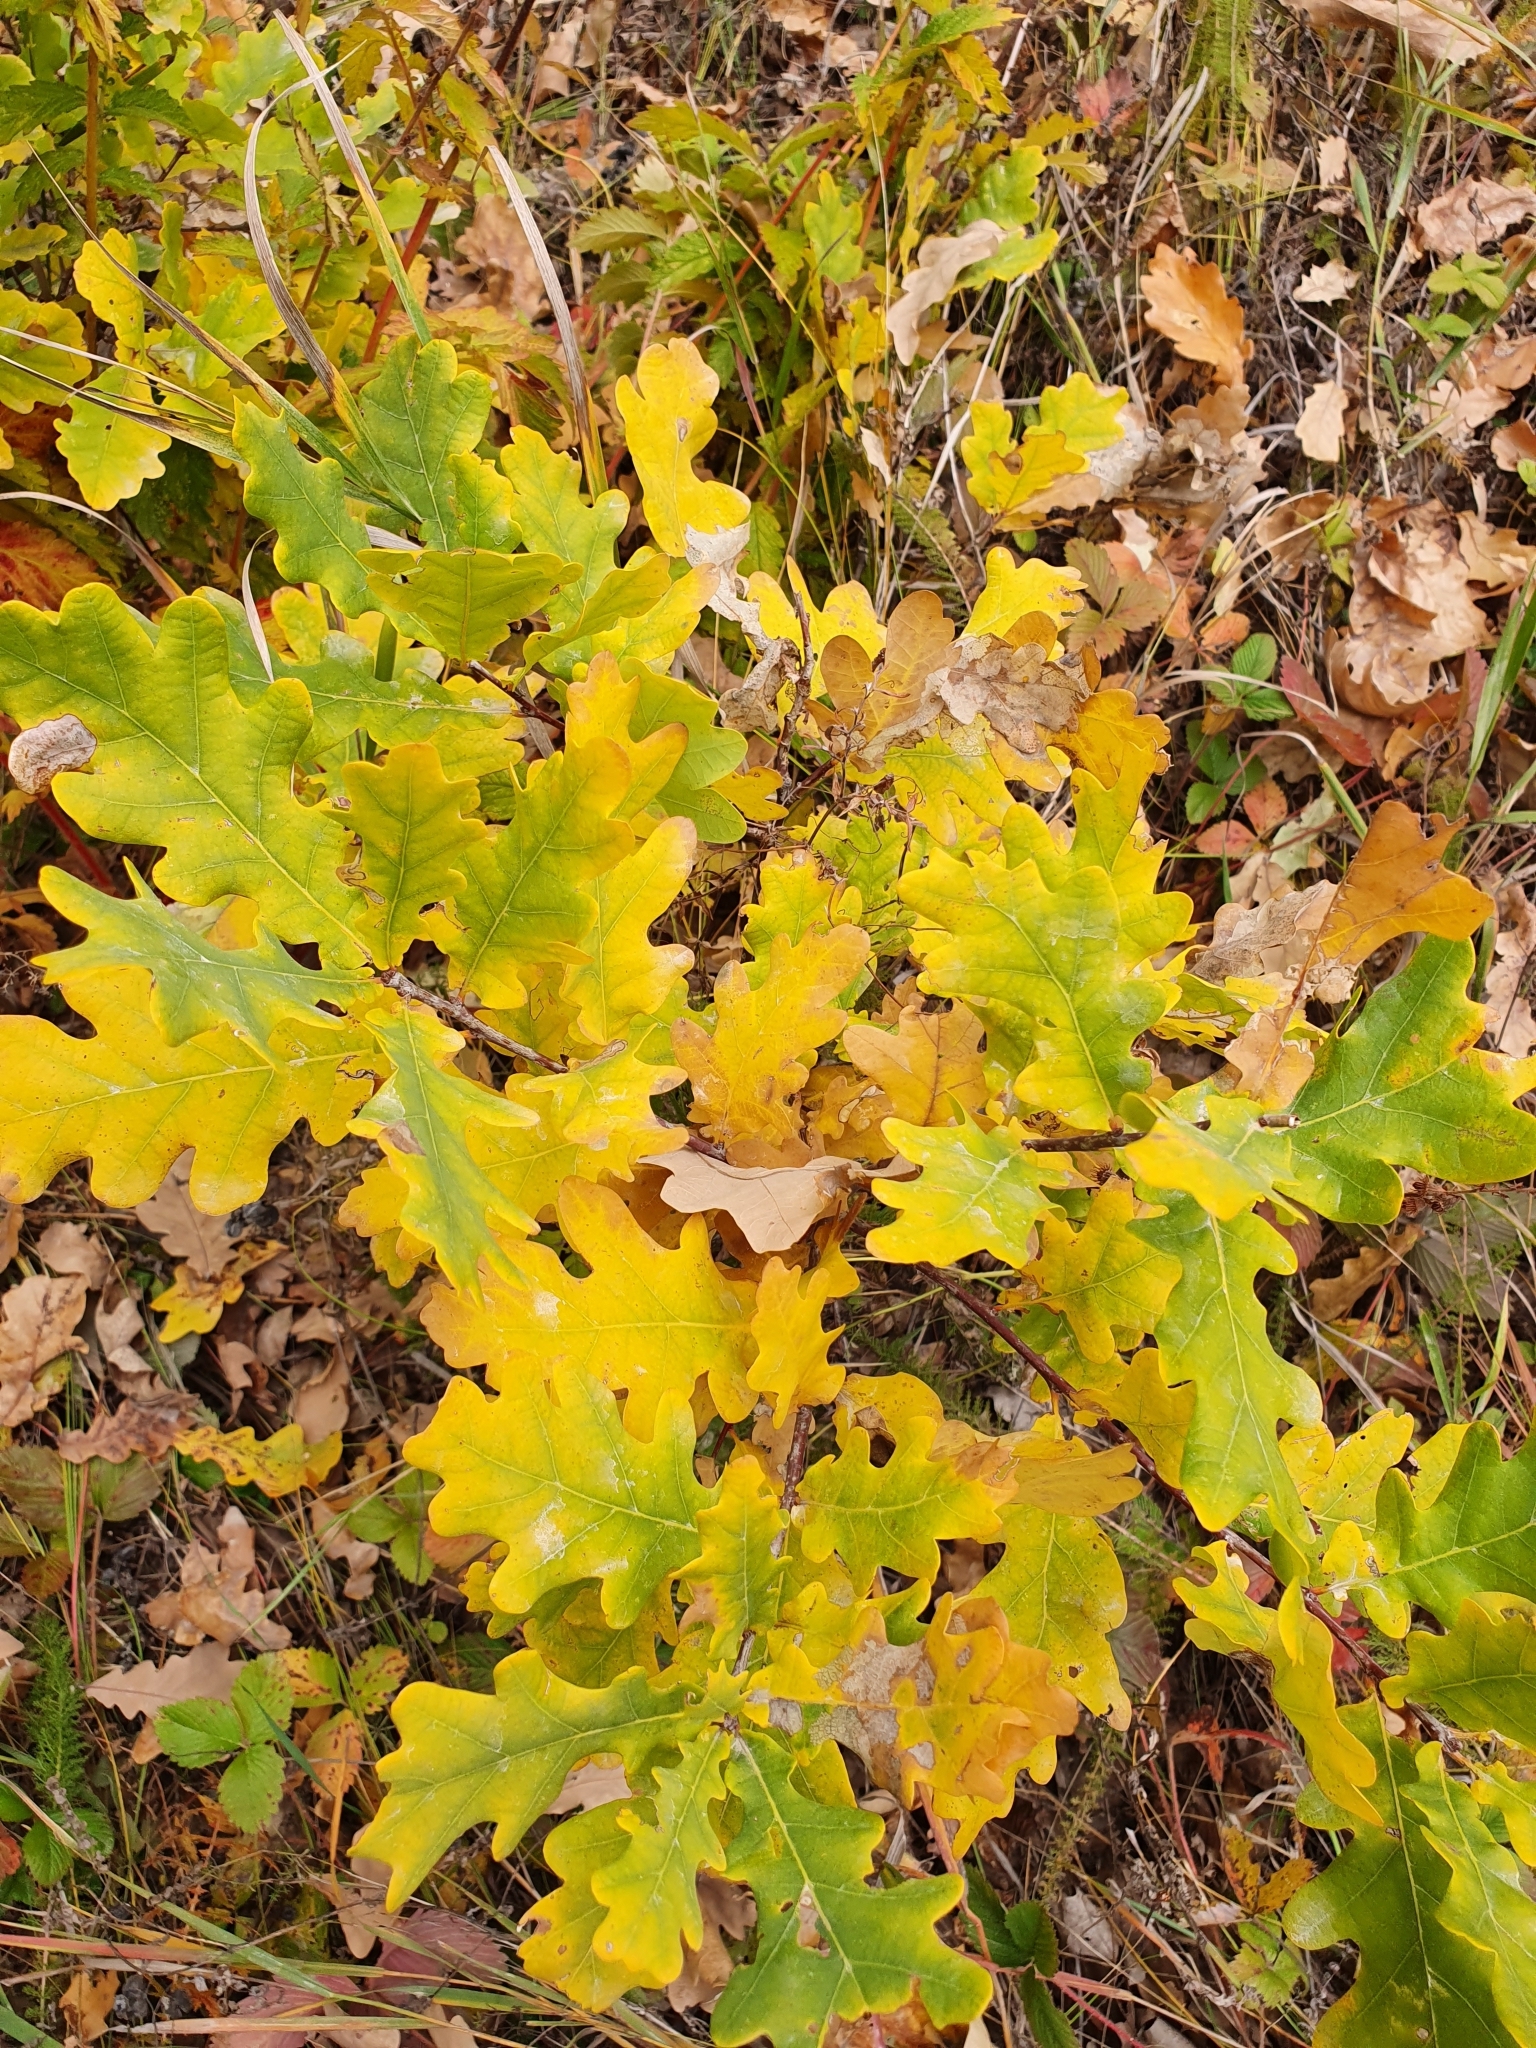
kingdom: Plantae
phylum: Tracheophyta
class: Magnoliopsida
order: Fagales
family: Fagaceae
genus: Quercus
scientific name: Quercus robur
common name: Pedunculate oak
